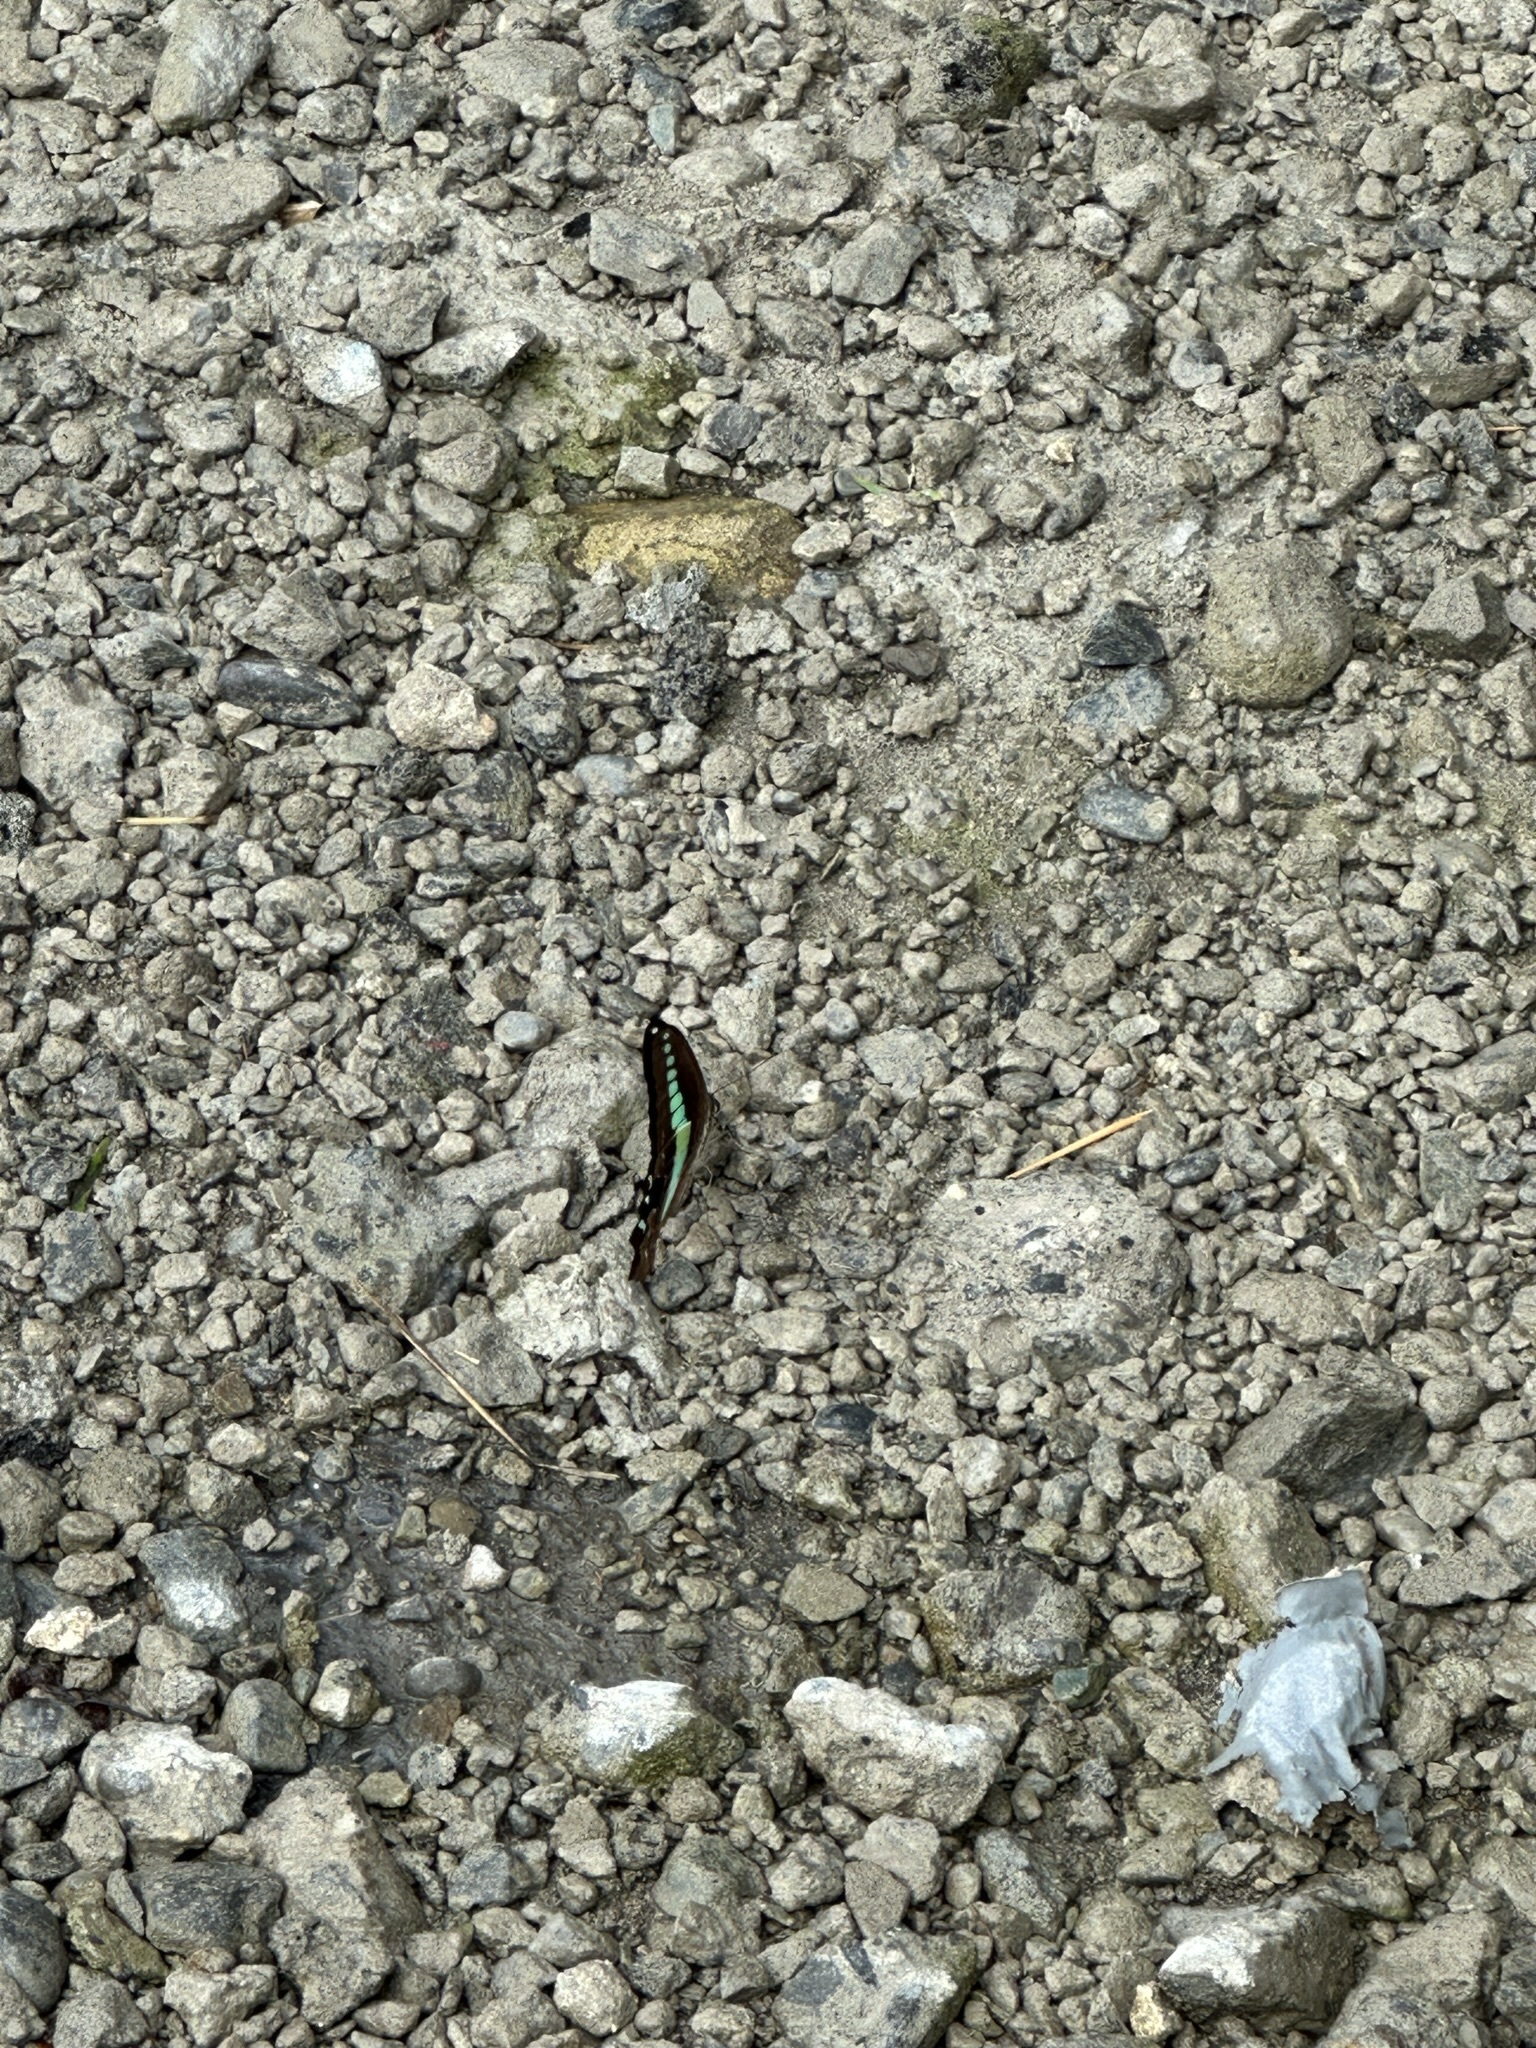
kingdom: Fungi
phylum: Ascomycota
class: Sordariomycetes
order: Microascales
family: Microascaceae
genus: Graphium
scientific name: Graphium sarpedon
